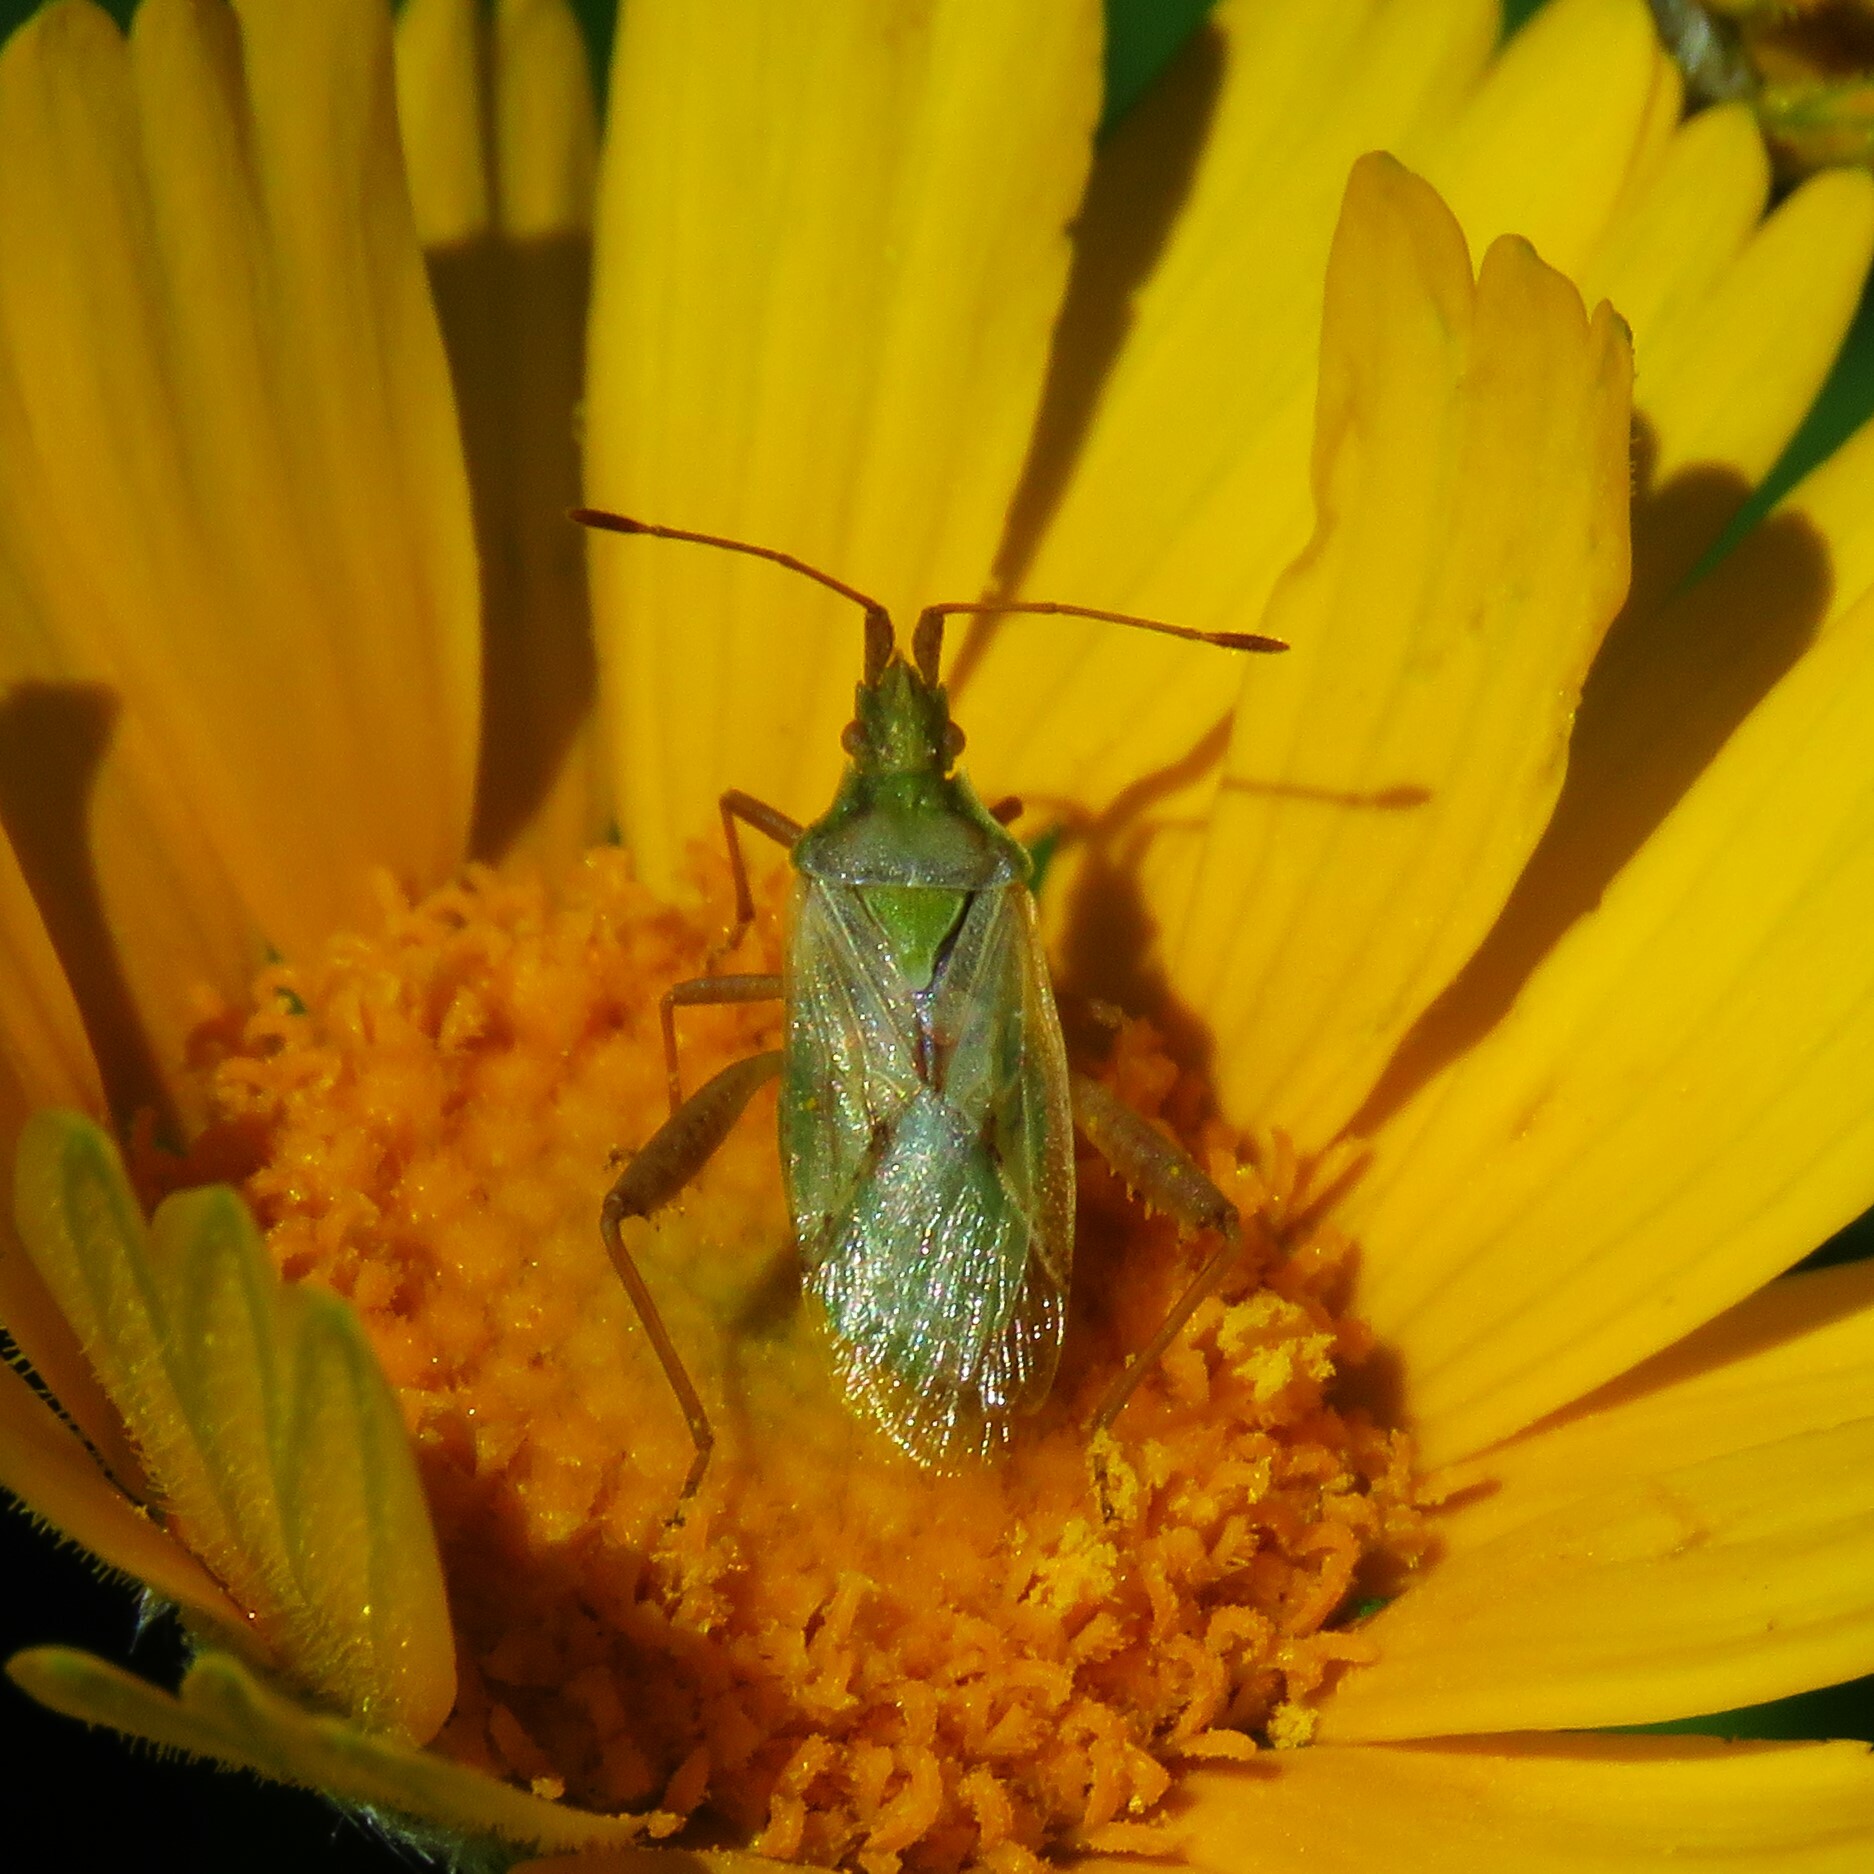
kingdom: Animalia
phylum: Arthropoda
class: Insecta
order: Hemiptera
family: Rhopalidae
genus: Harmostes
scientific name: Harmostes reflexulus
